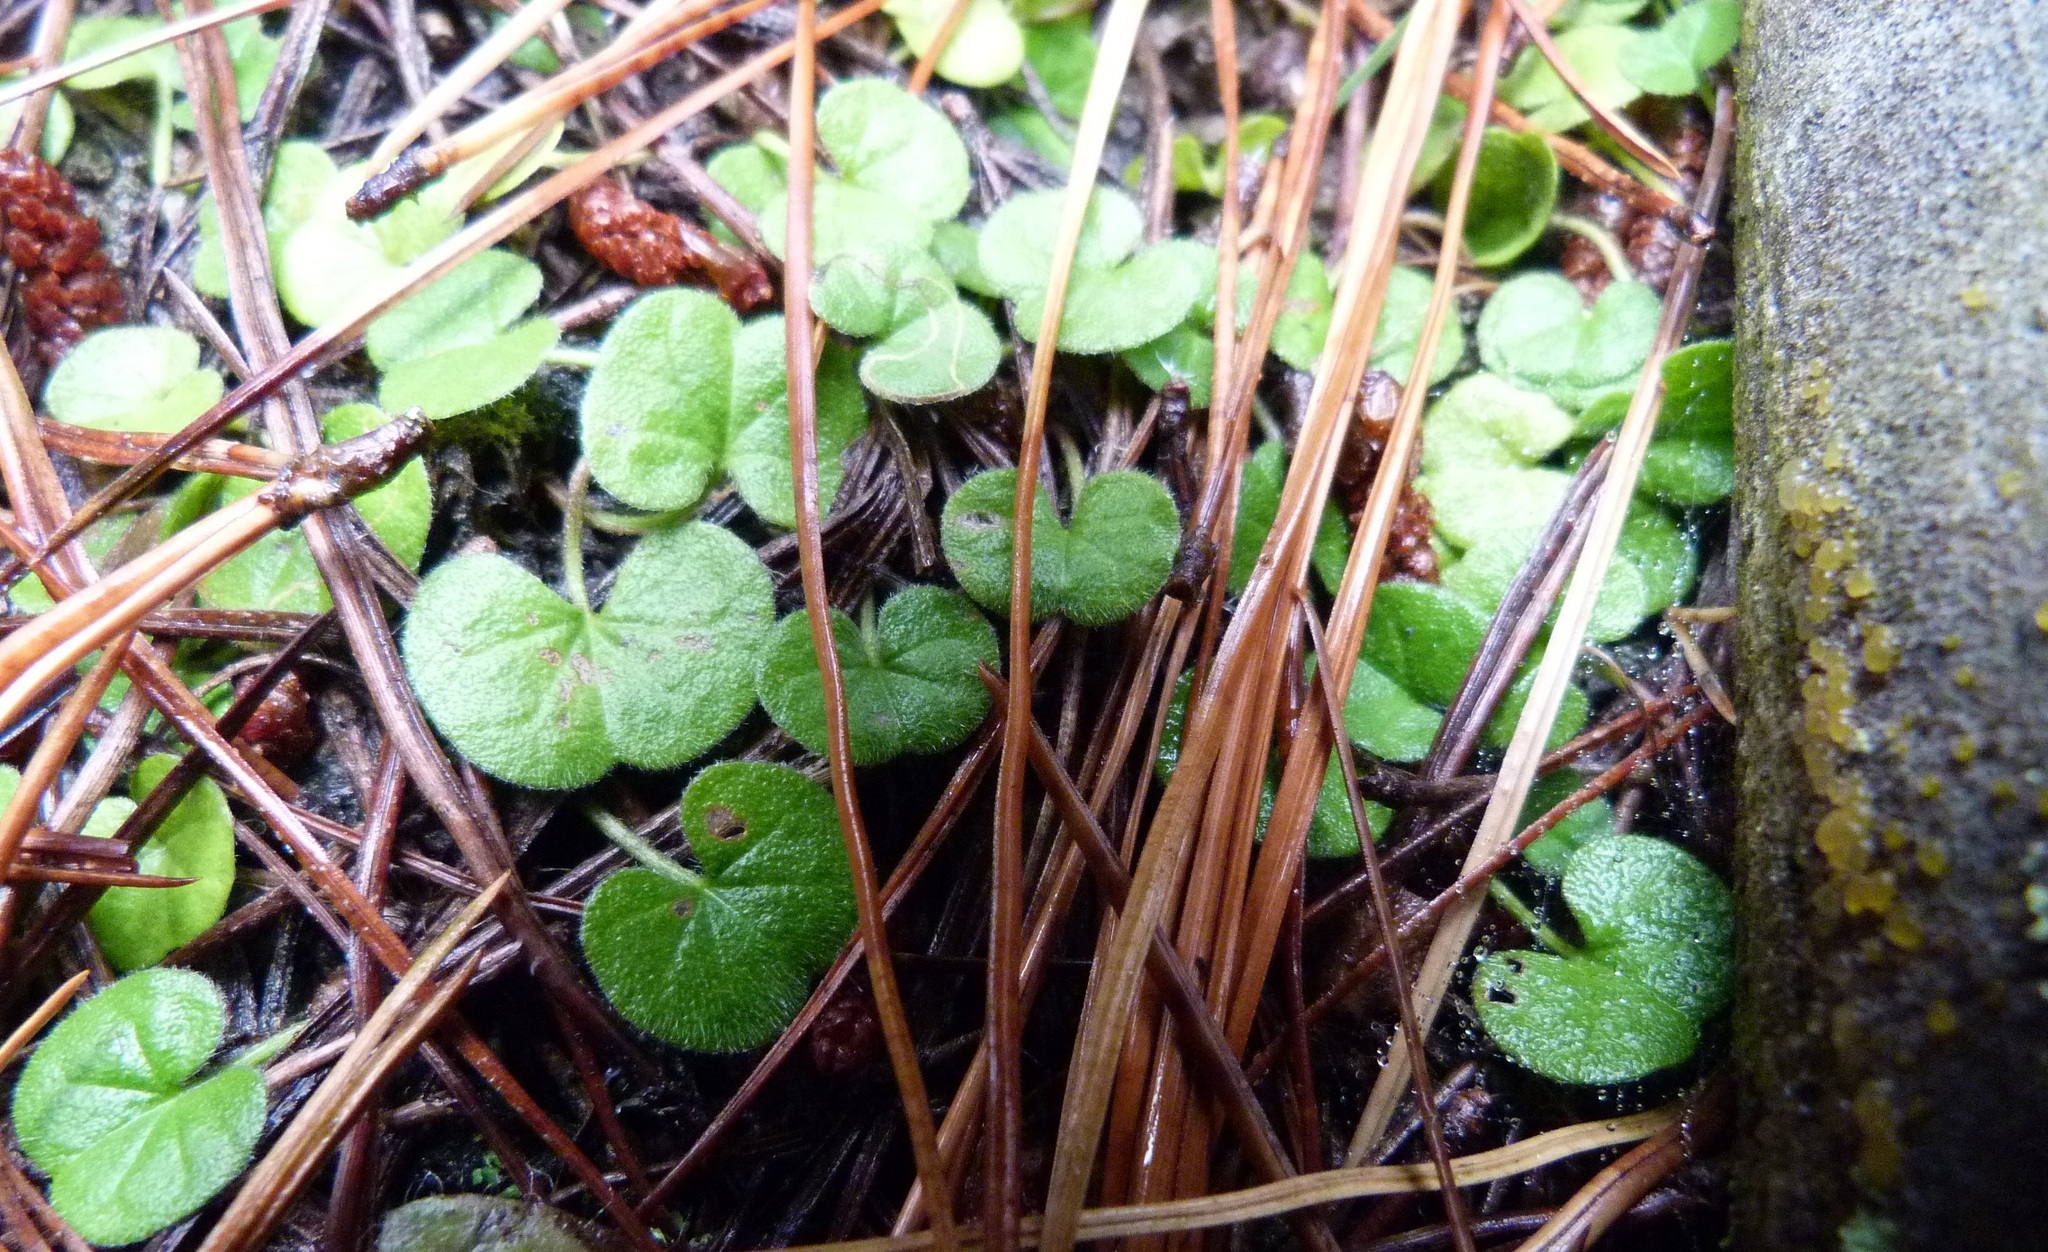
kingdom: Plantae
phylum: Tracheophyta
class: Magnoliopsida
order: Solanales
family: Convolvulaceae
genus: Dichondra
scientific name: Dichondra repens
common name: Kidneyweed
